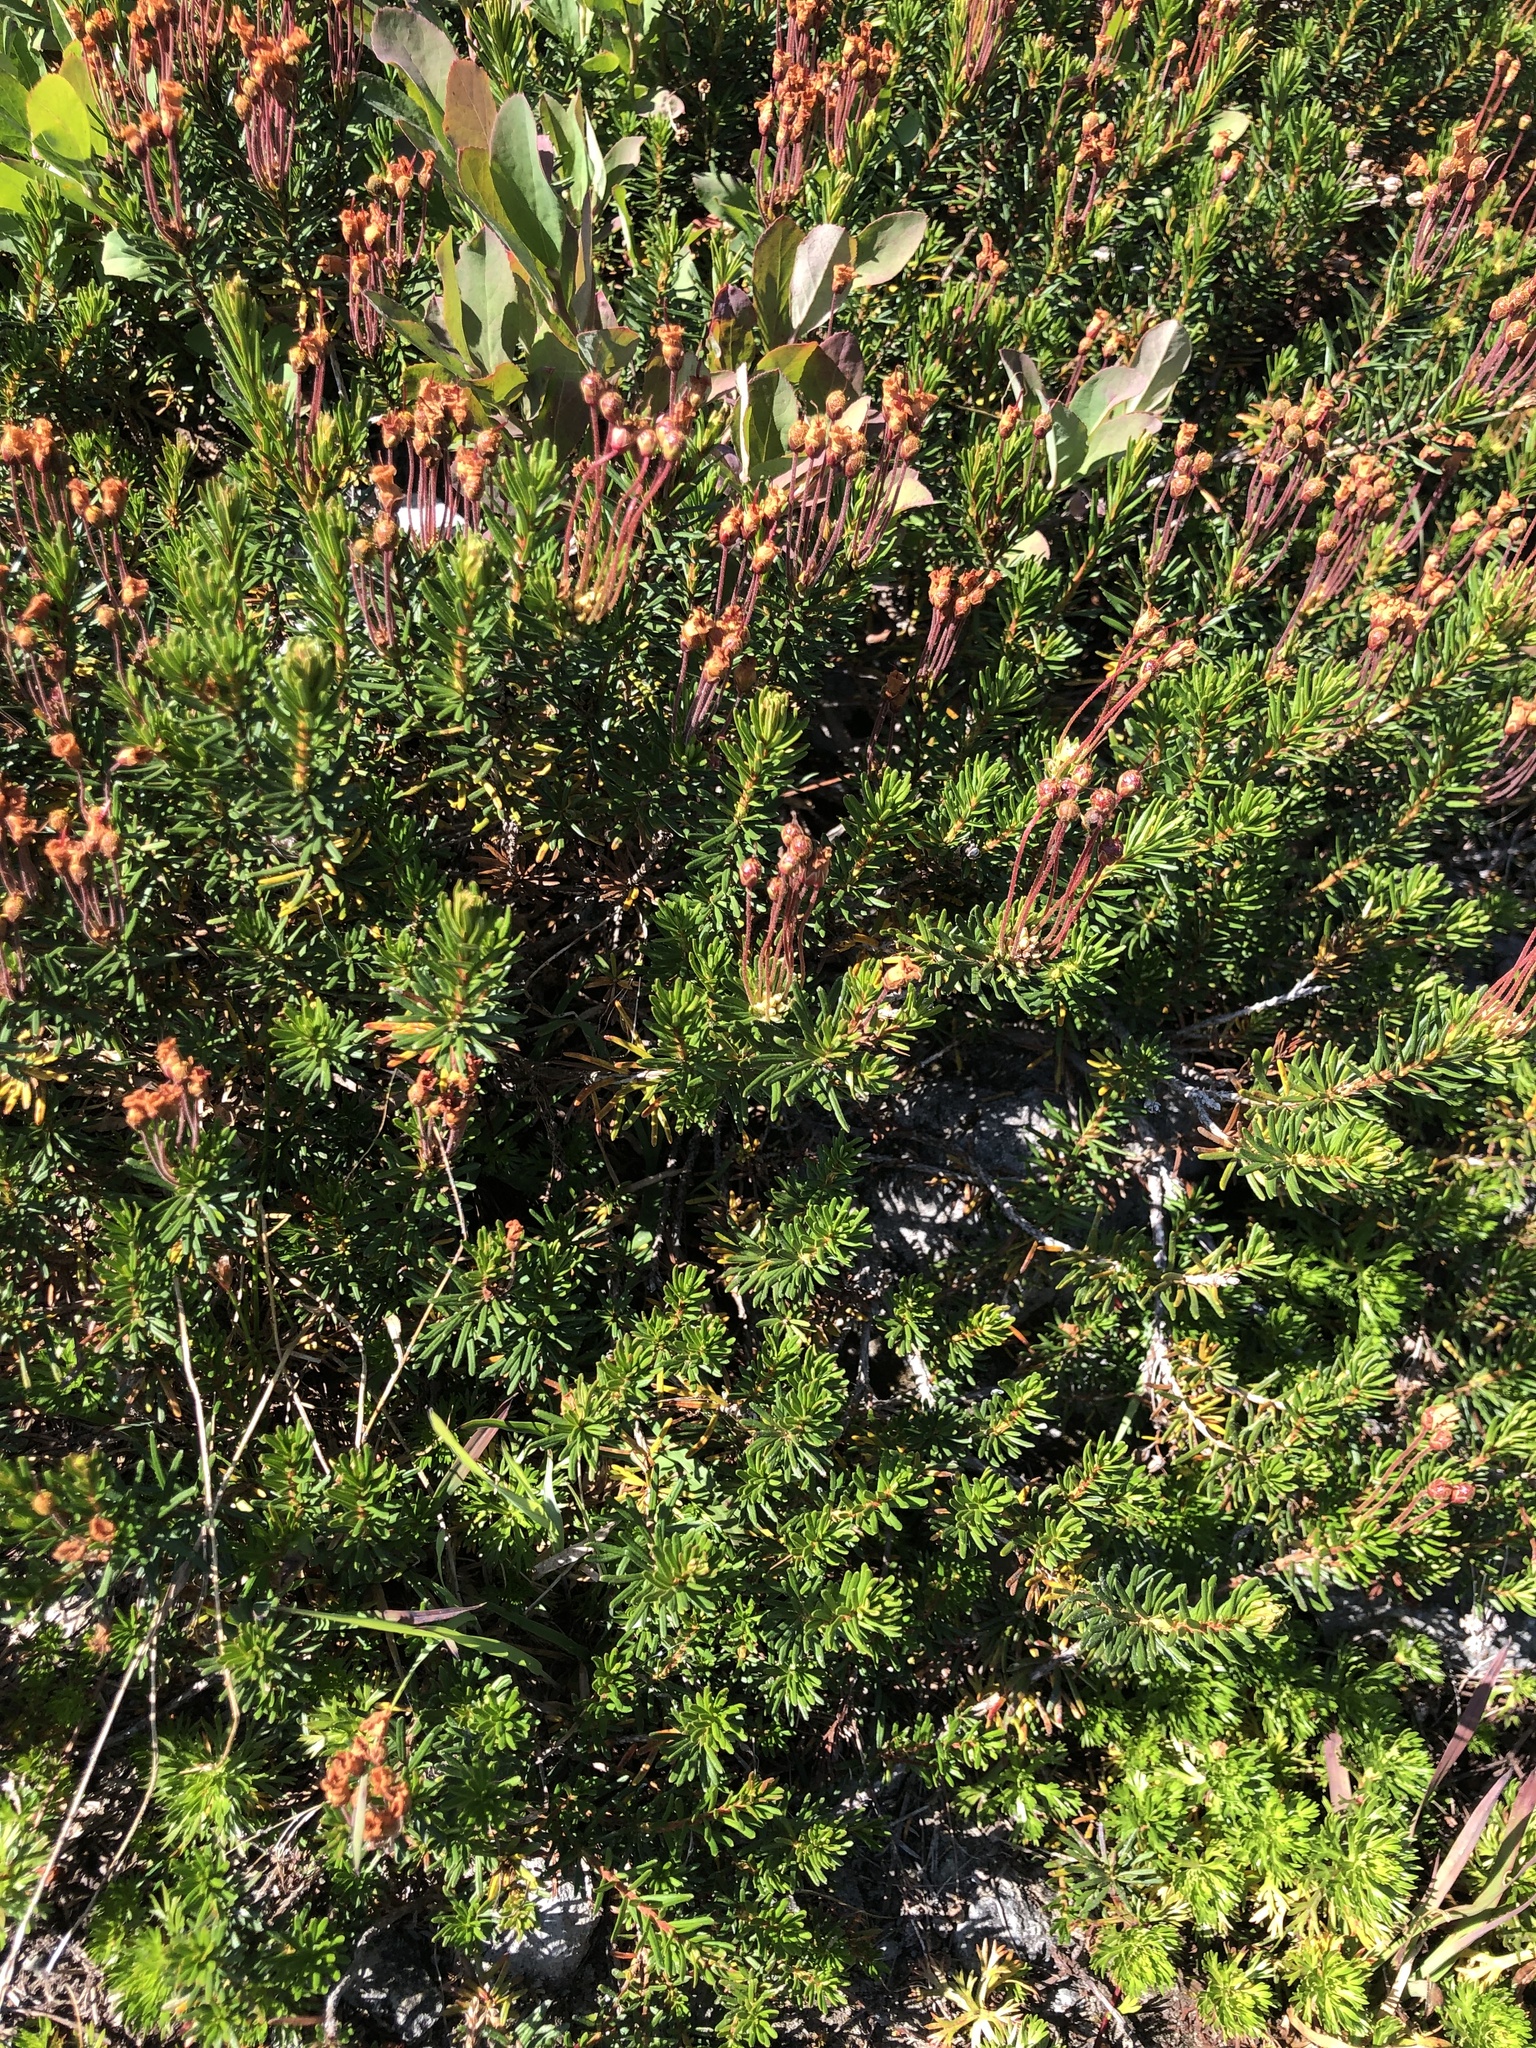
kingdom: Plantae
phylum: Tracheophyta
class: Magnoliopsida
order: Ericales
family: Ericaceae
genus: Phyllodoce
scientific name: Phyllodoce empetriformis
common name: Pink mountain heather
